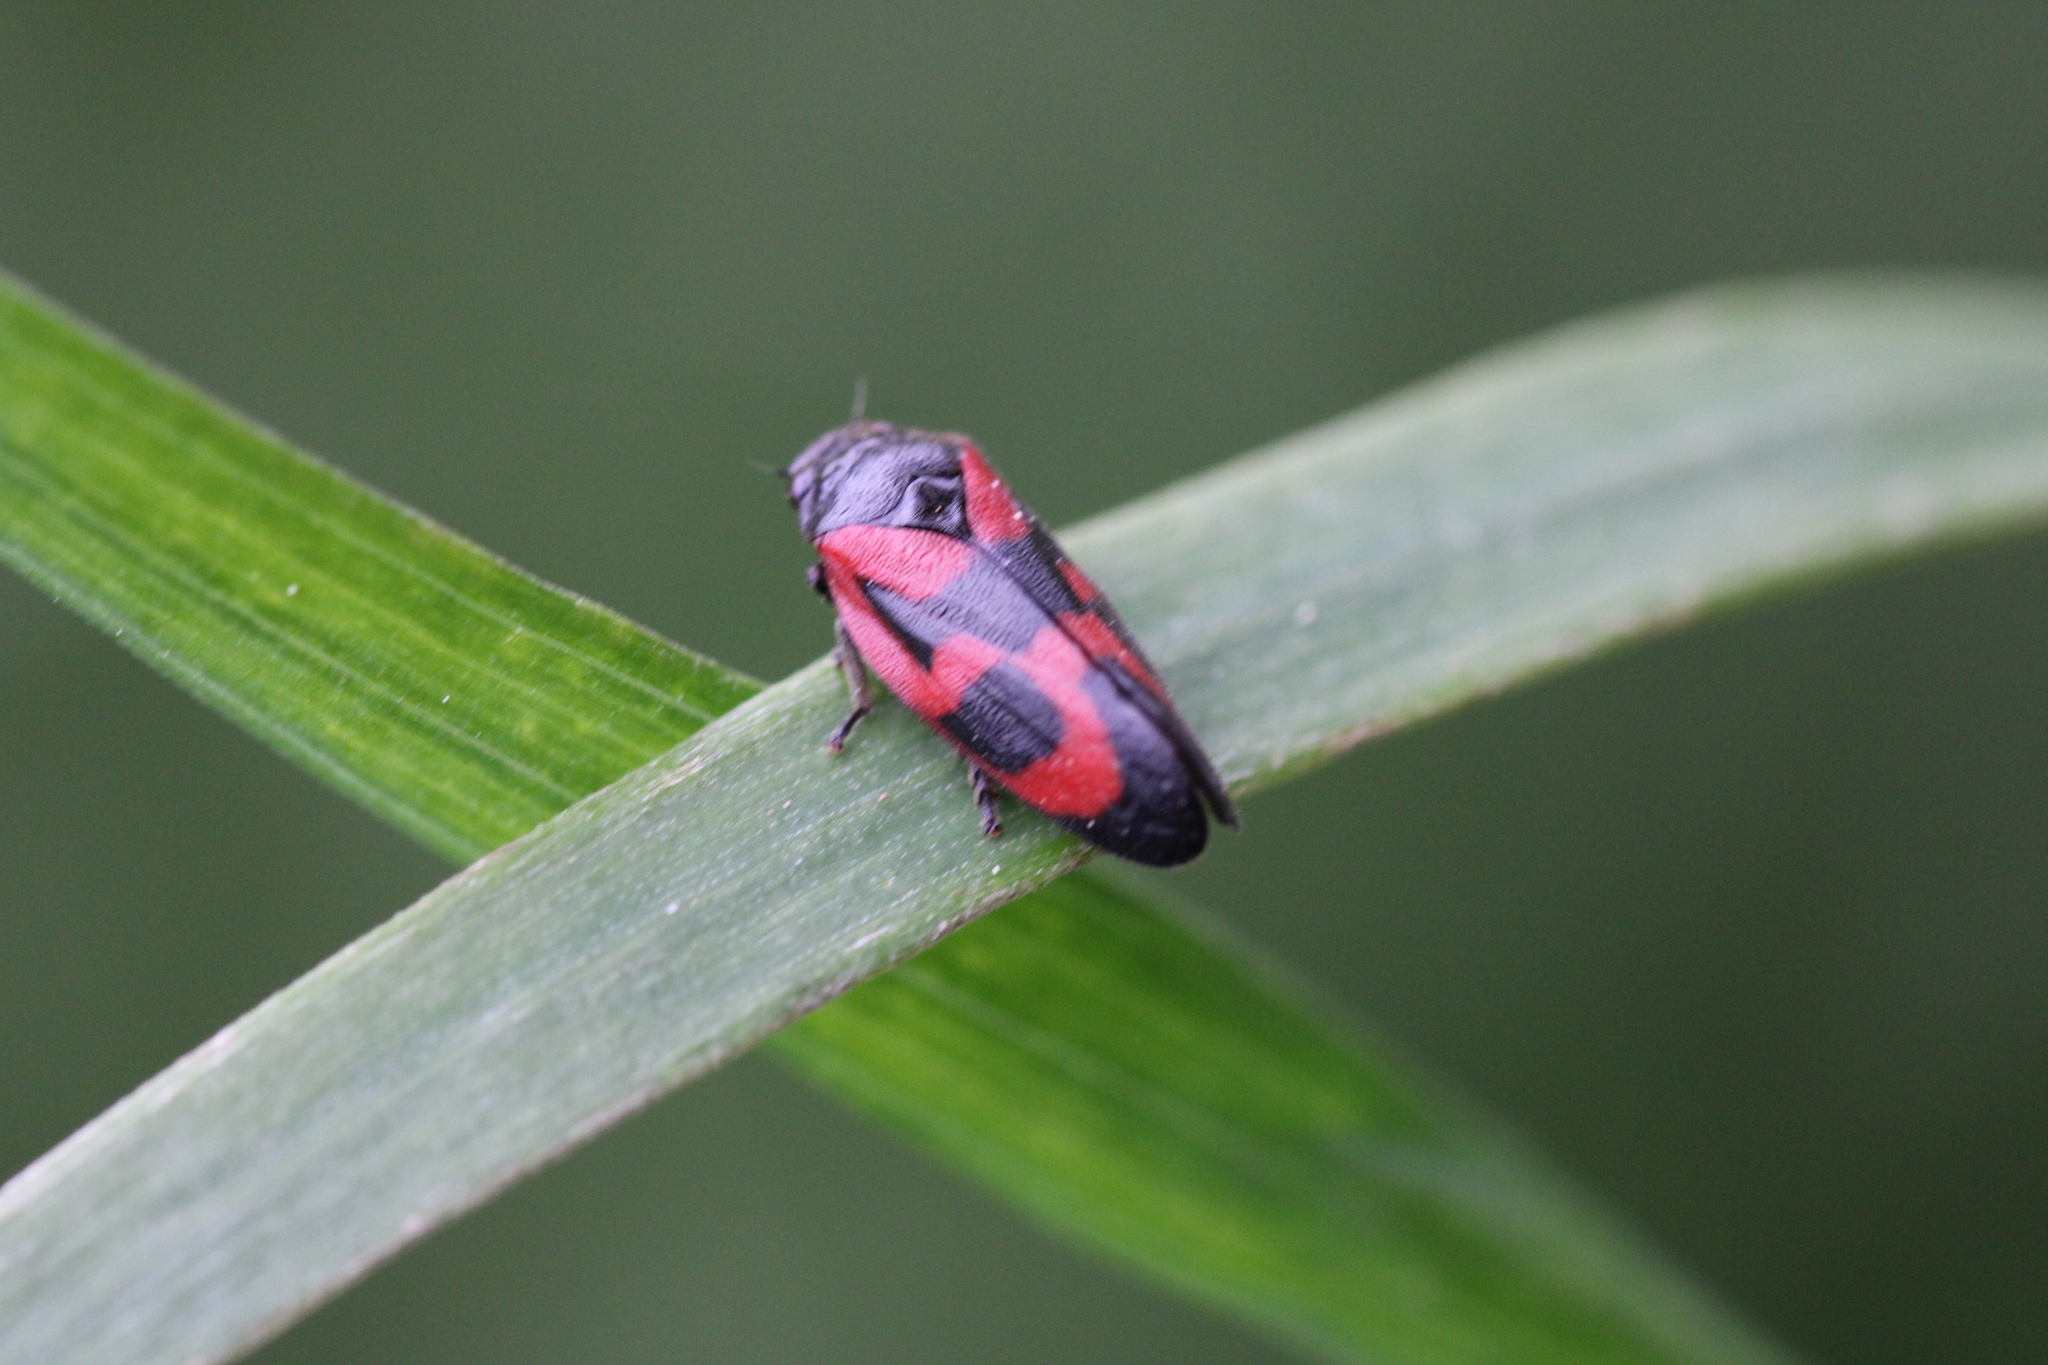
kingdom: Animalia
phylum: Arthropoda
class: Insecta
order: Hemiptera
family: Cercopidae
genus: Haematoloma
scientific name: Haematoloma dorsata
